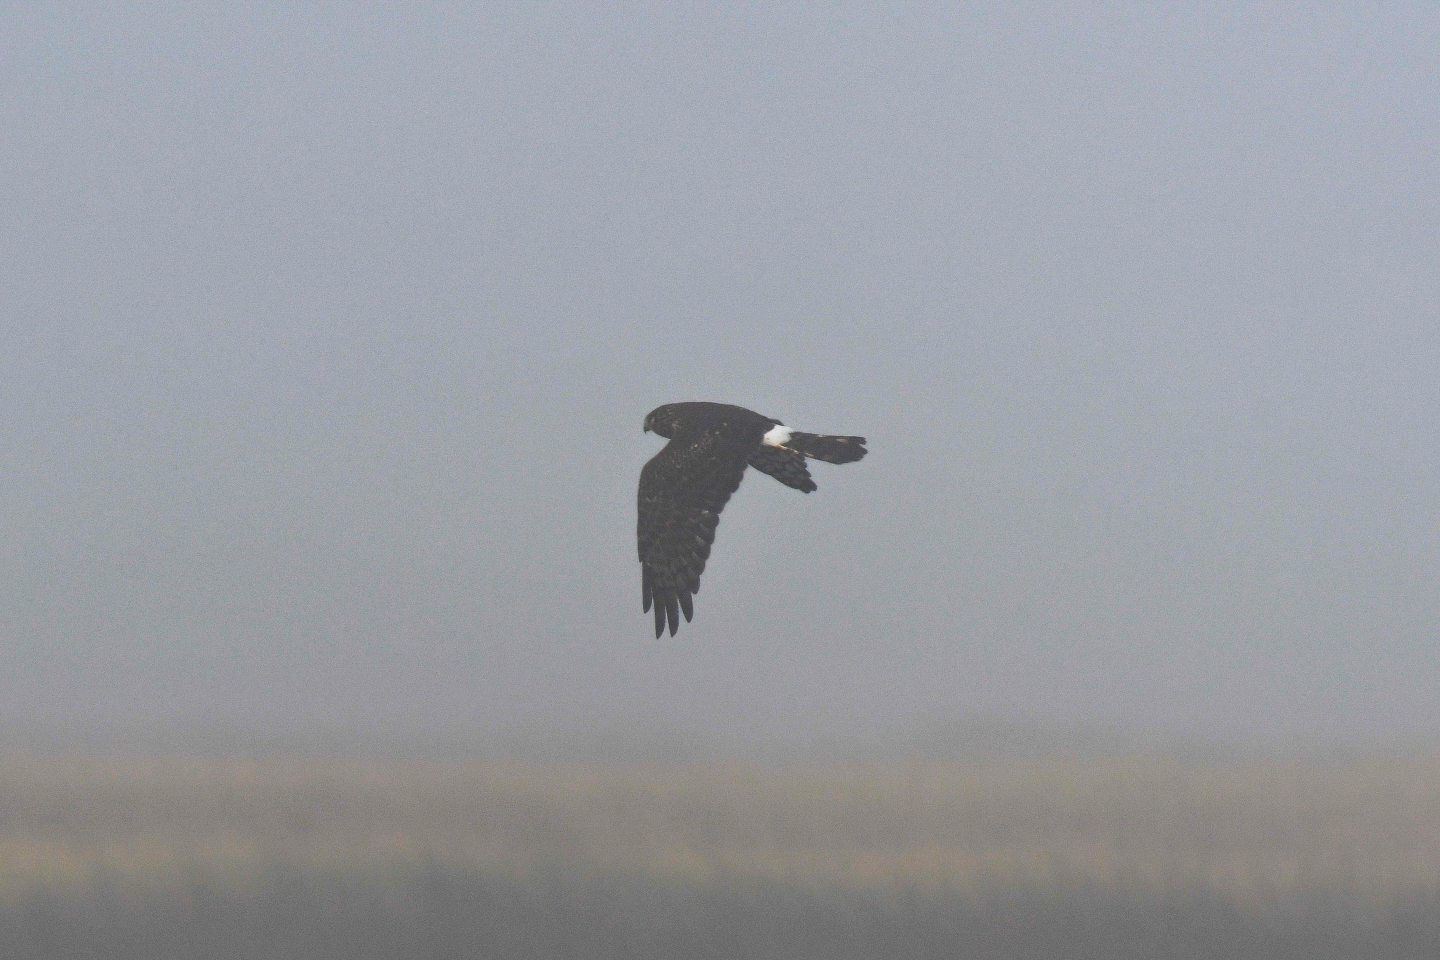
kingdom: Animalia
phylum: Chordata
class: Aves
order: Accipitriformes
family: Accipitridae
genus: Circus
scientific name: Circus cyaneus
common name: Hen harrier
